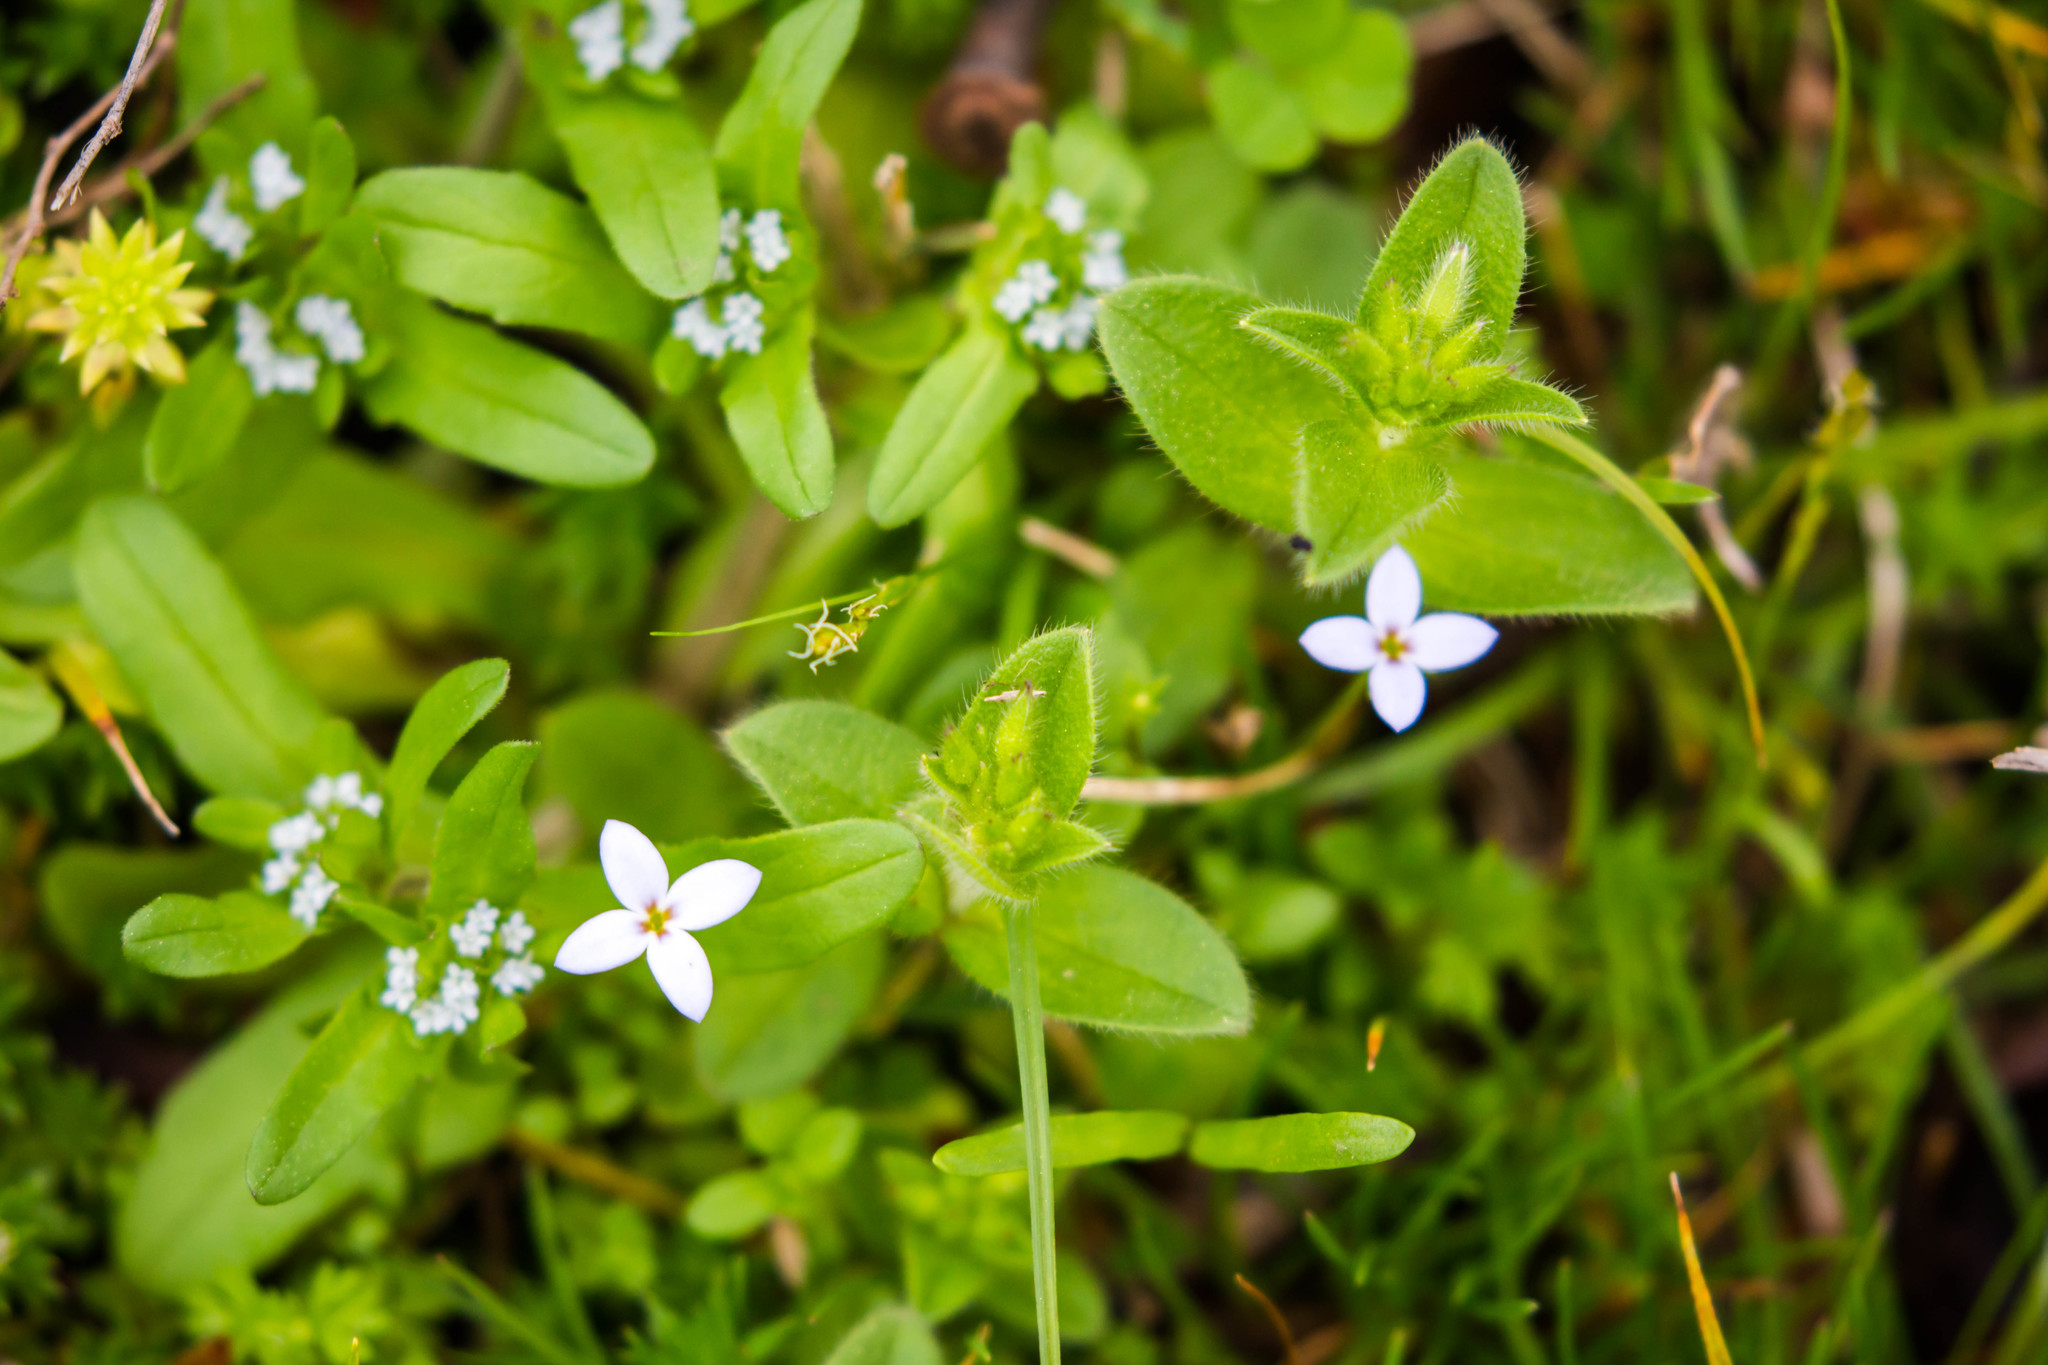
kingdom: Plantae
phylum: Tracheophyta
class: Magnoliopsida
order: Gentianales
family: Rubiaceae
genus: Houstonia
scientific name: Houstonia pusilla
